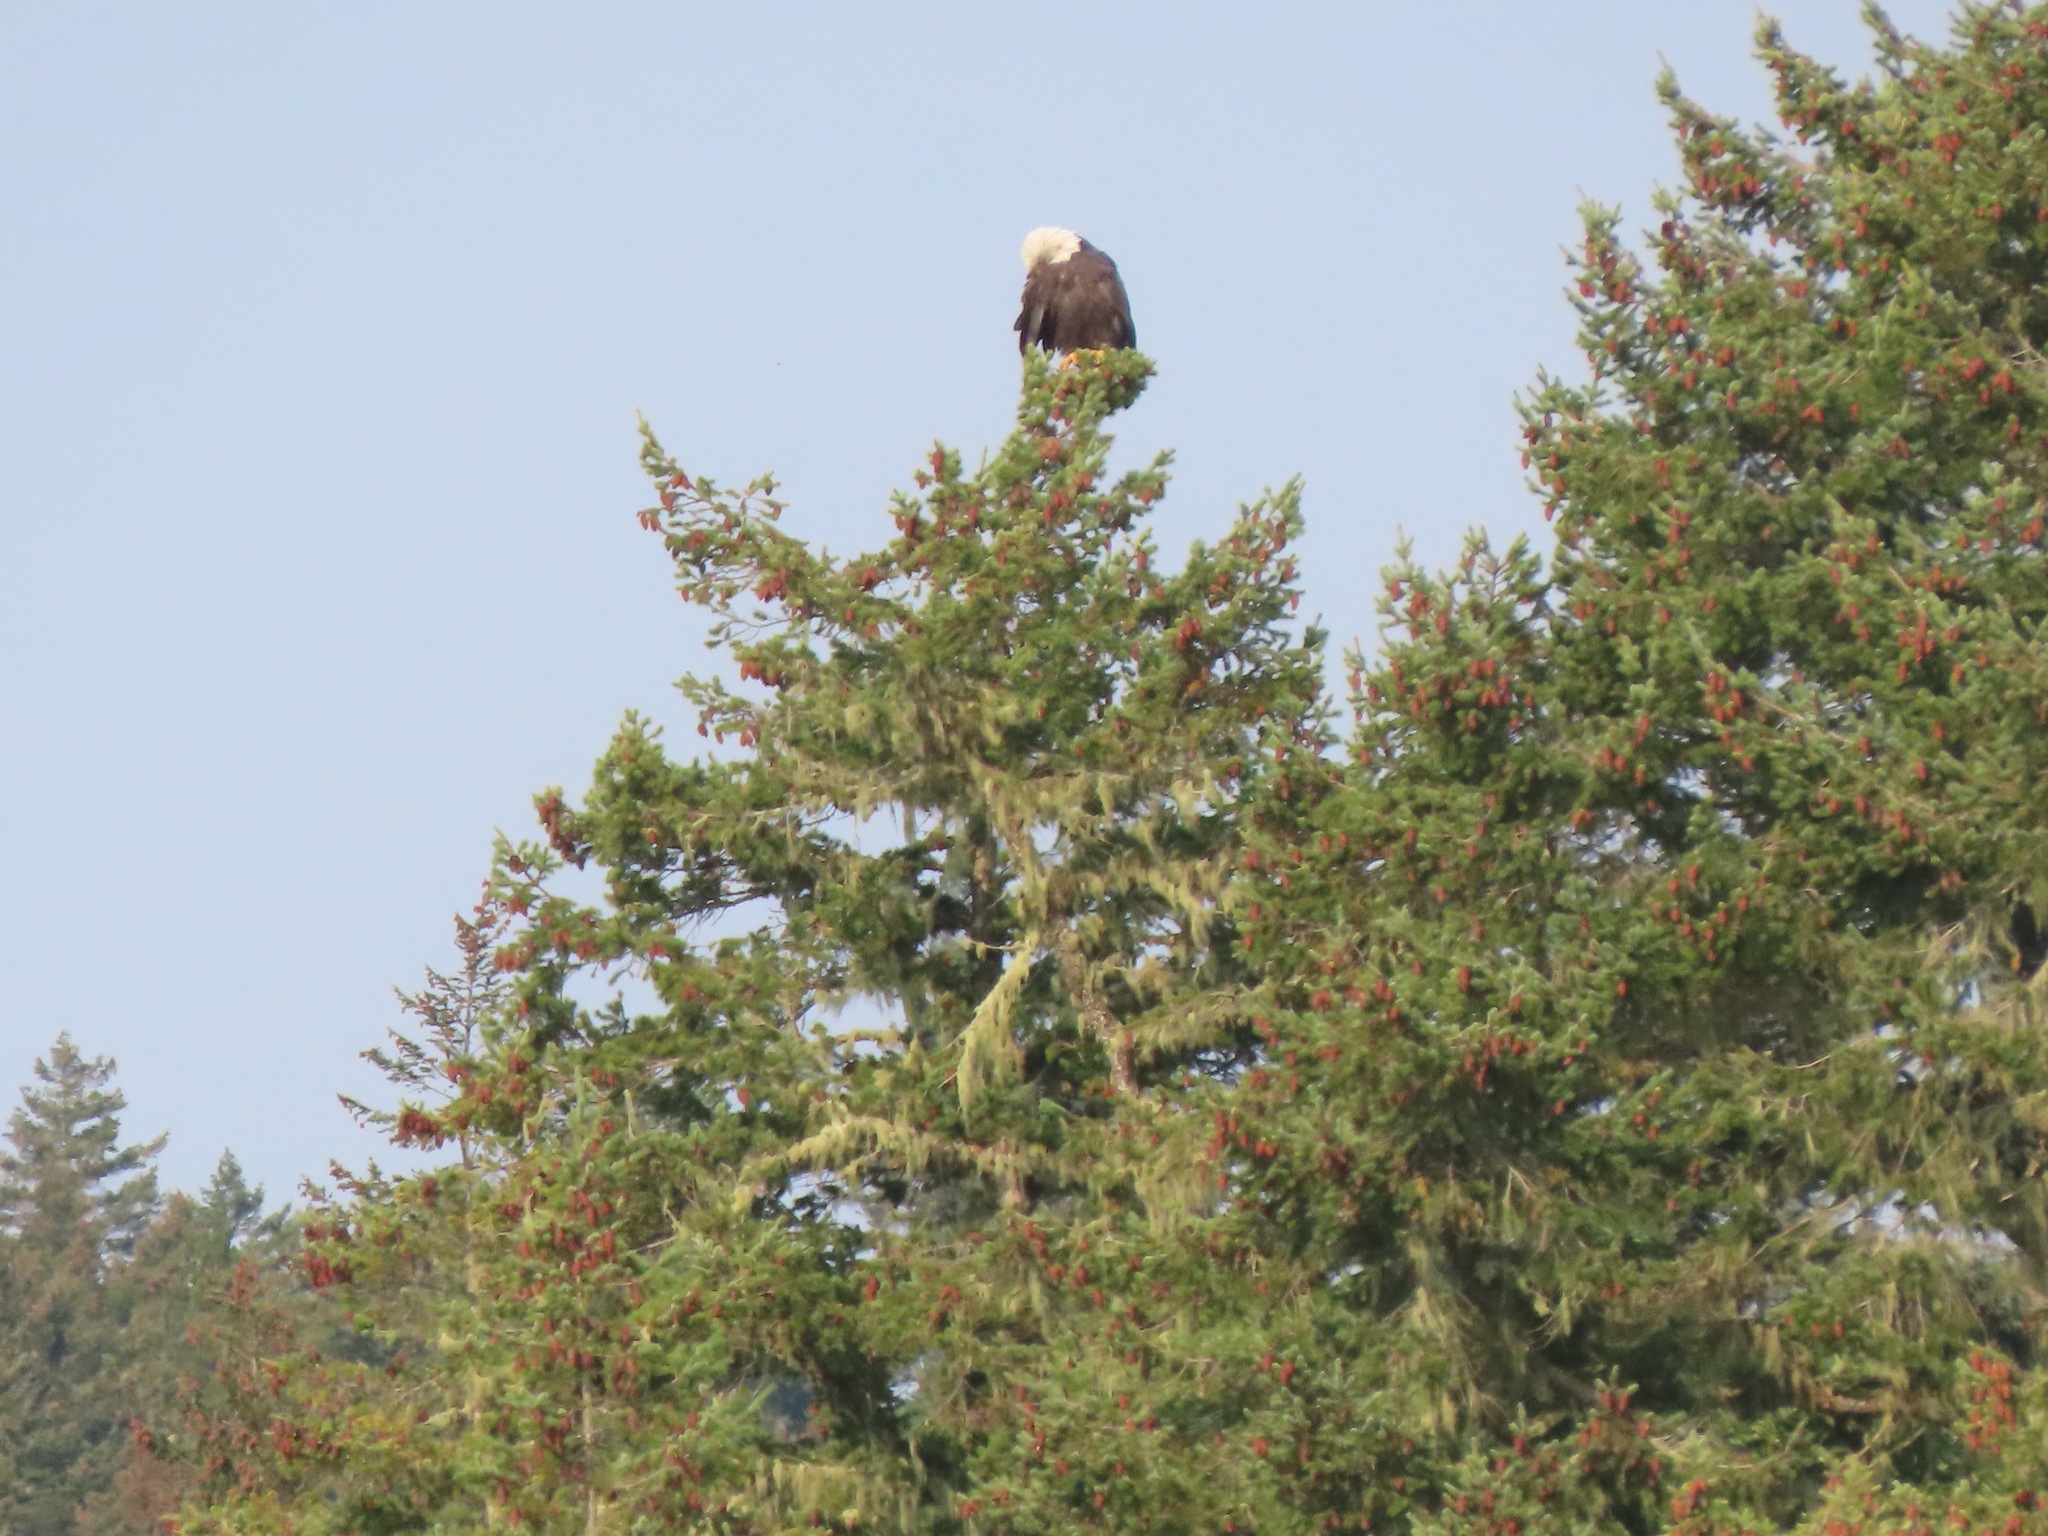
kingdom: Animalia
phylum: Chordata
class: Aves
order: Accipitriformes
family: Accipitridae
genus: Haliaeetus
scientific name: Haliaeetus leucocephalus
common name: Bald eagle
